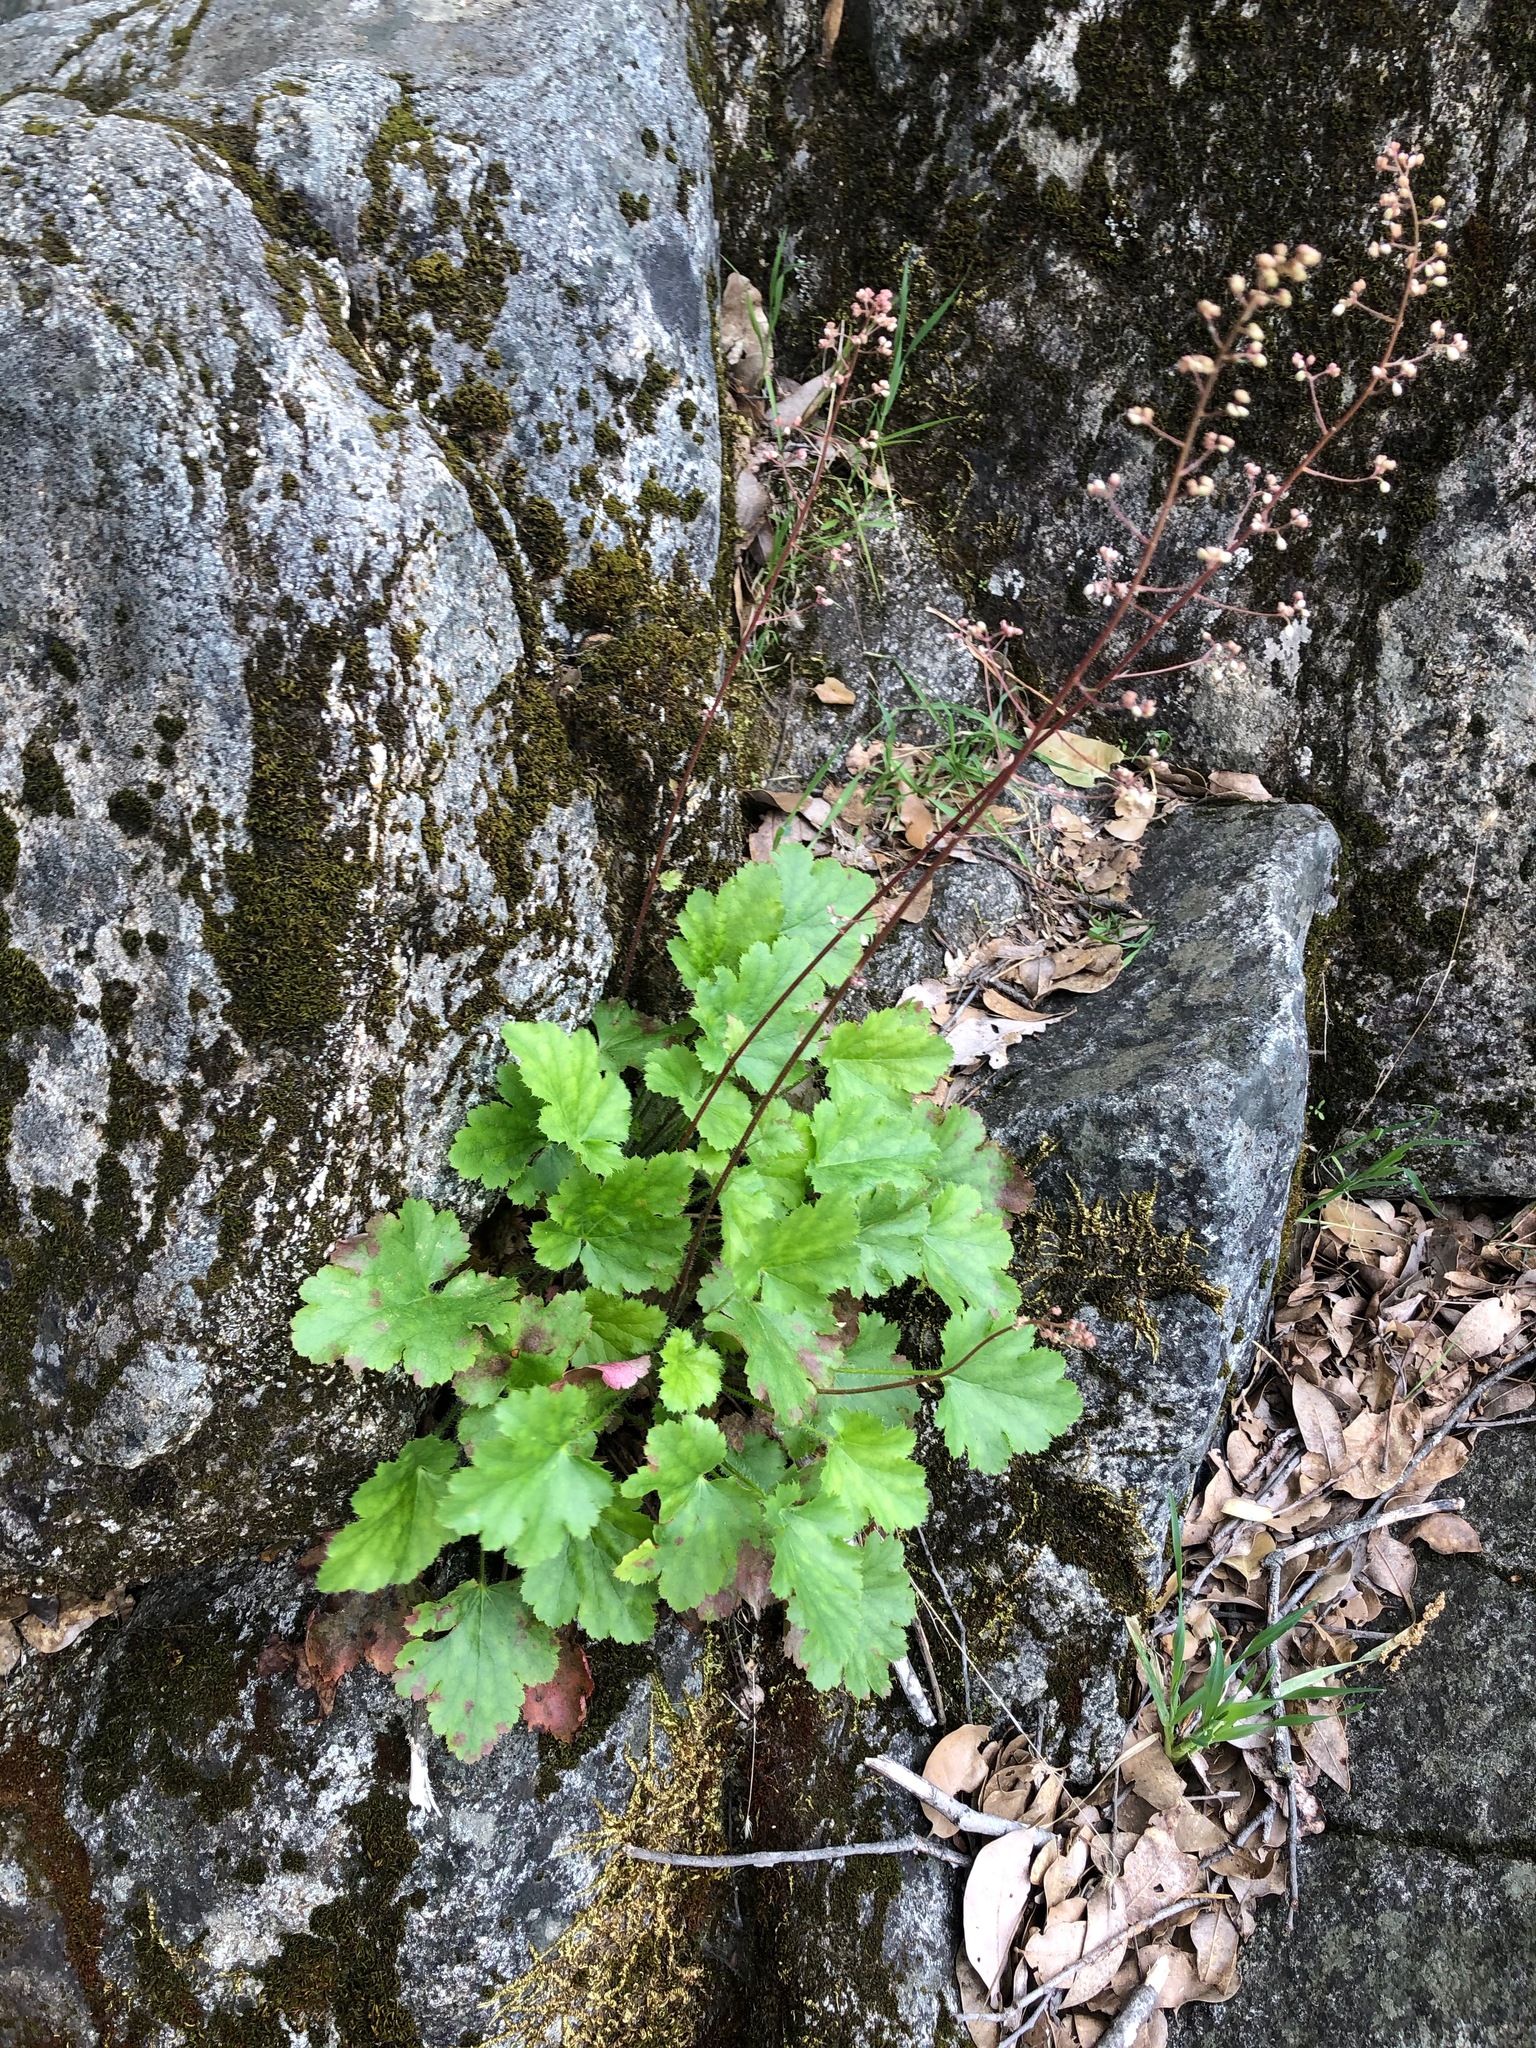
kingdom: Plantae
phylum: Tracheophyta
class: Magnoliopsida
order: Saxifragales
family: Saxifragaceae
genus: Heuchera
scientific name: Heuchera micrantha
